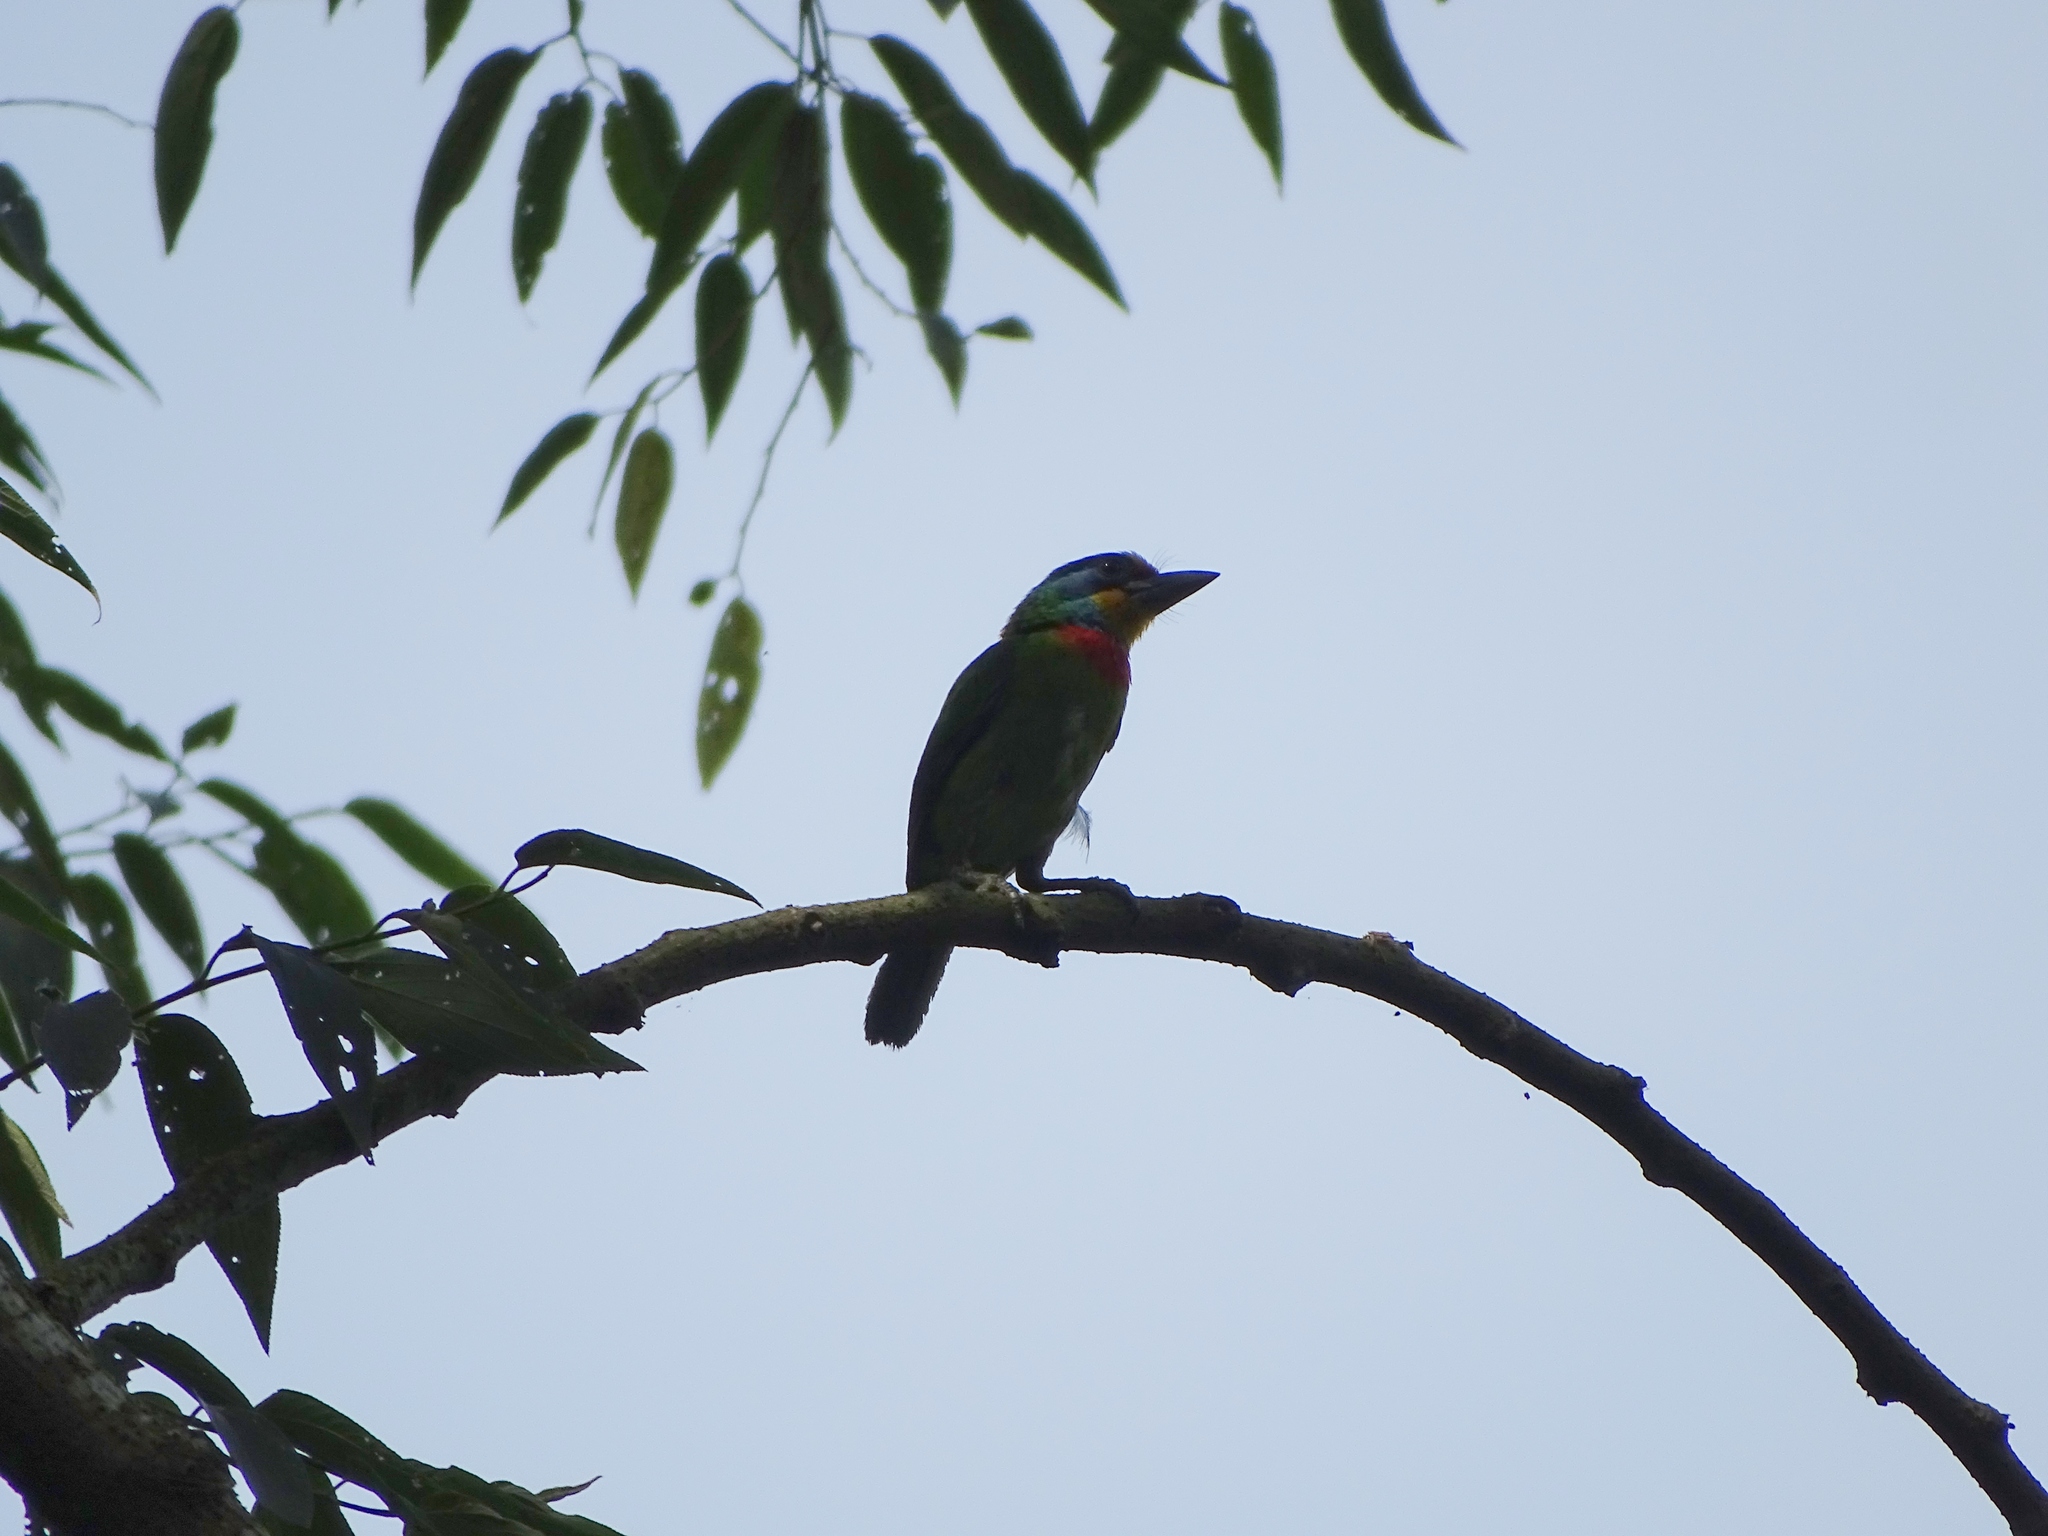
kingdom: Animalia
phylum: Chordata
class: Aves
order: Piciformes
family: Megalaimidae
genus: Psilopogon
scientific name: Psilopogon nuchalis
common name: Taiwan barbet
